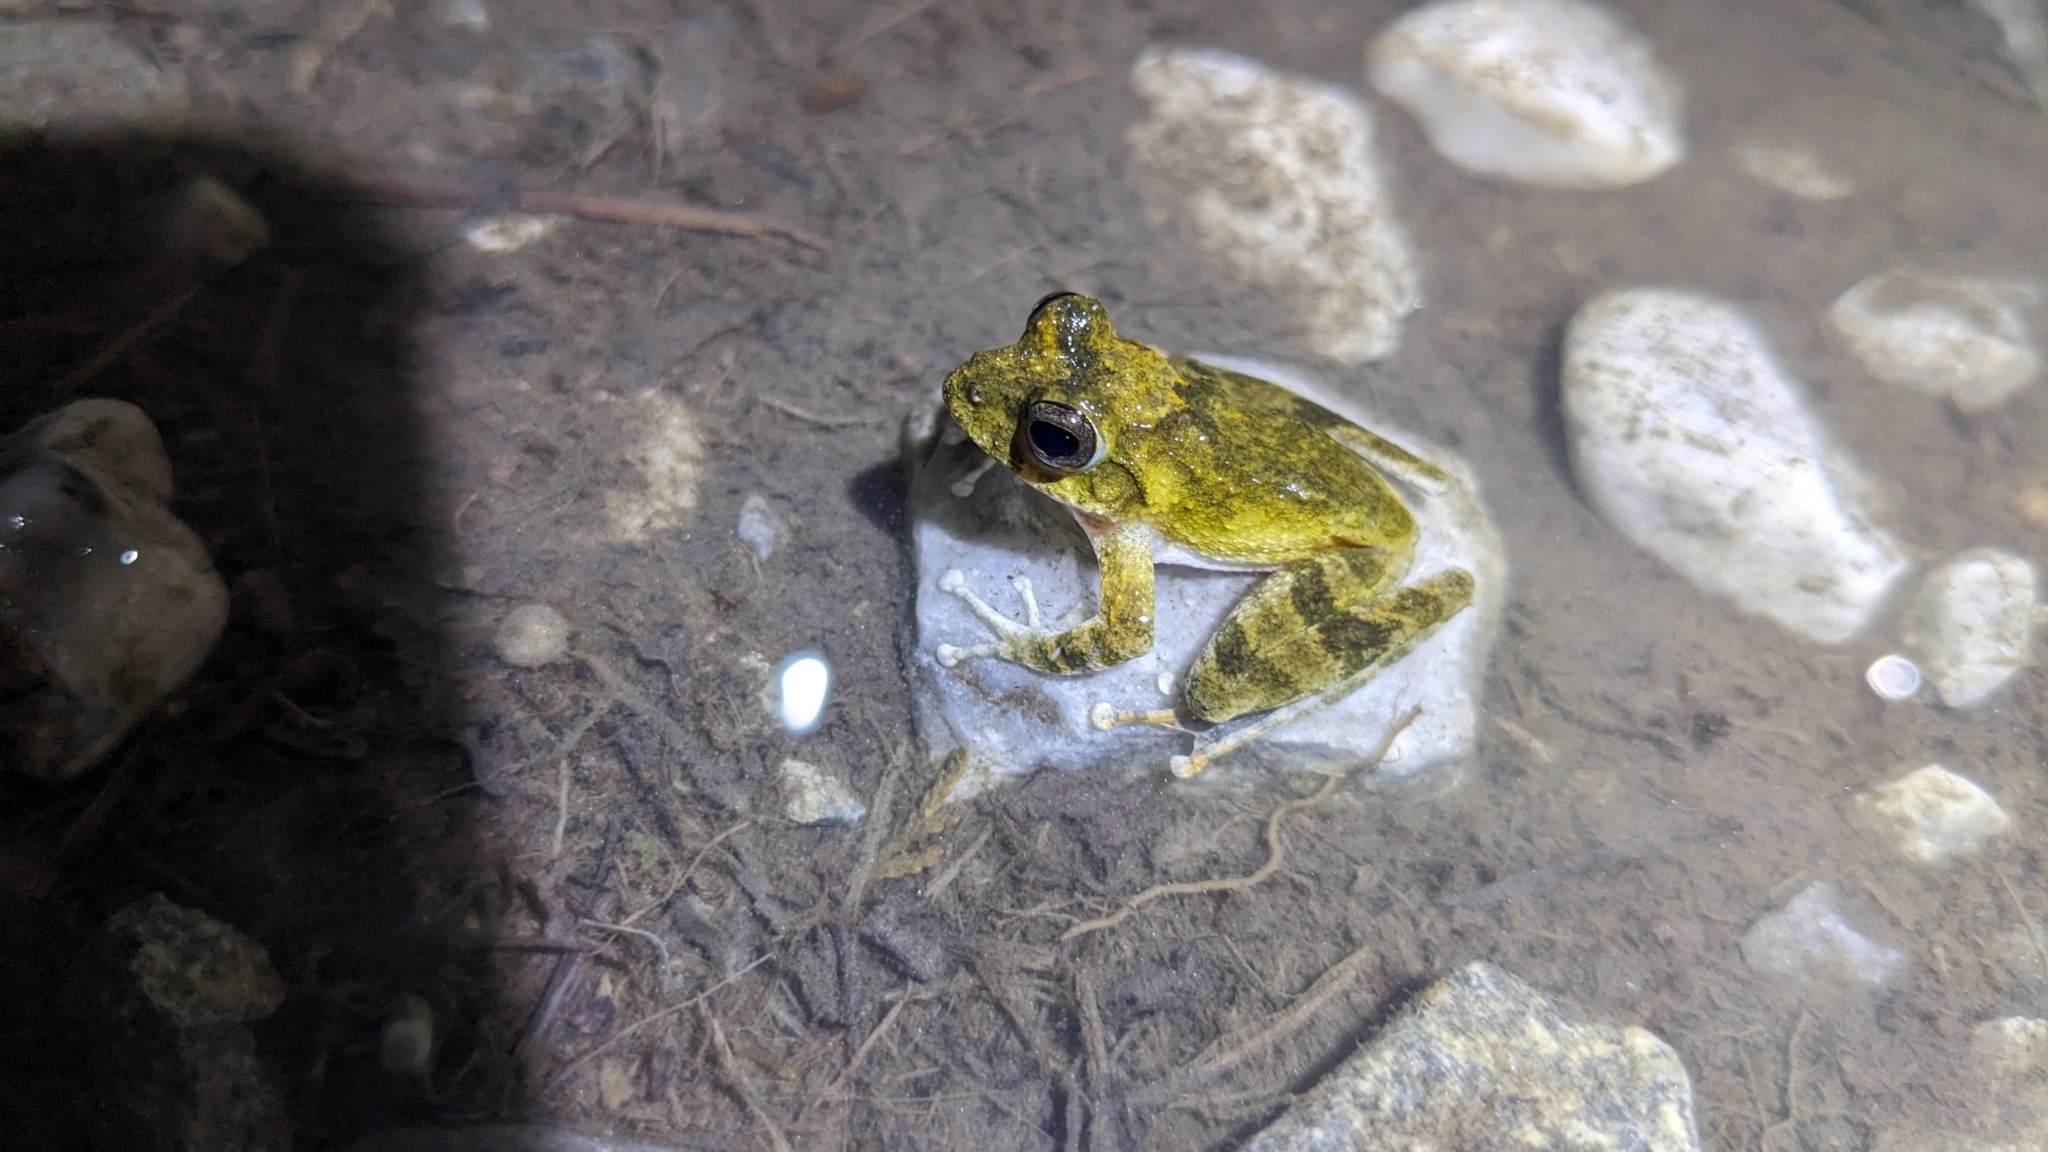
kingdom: Animalia
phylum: Chordata
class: Amphibia
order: Anura
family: Rhacophoridae
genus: Buergeria
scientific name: Buergeria otai
